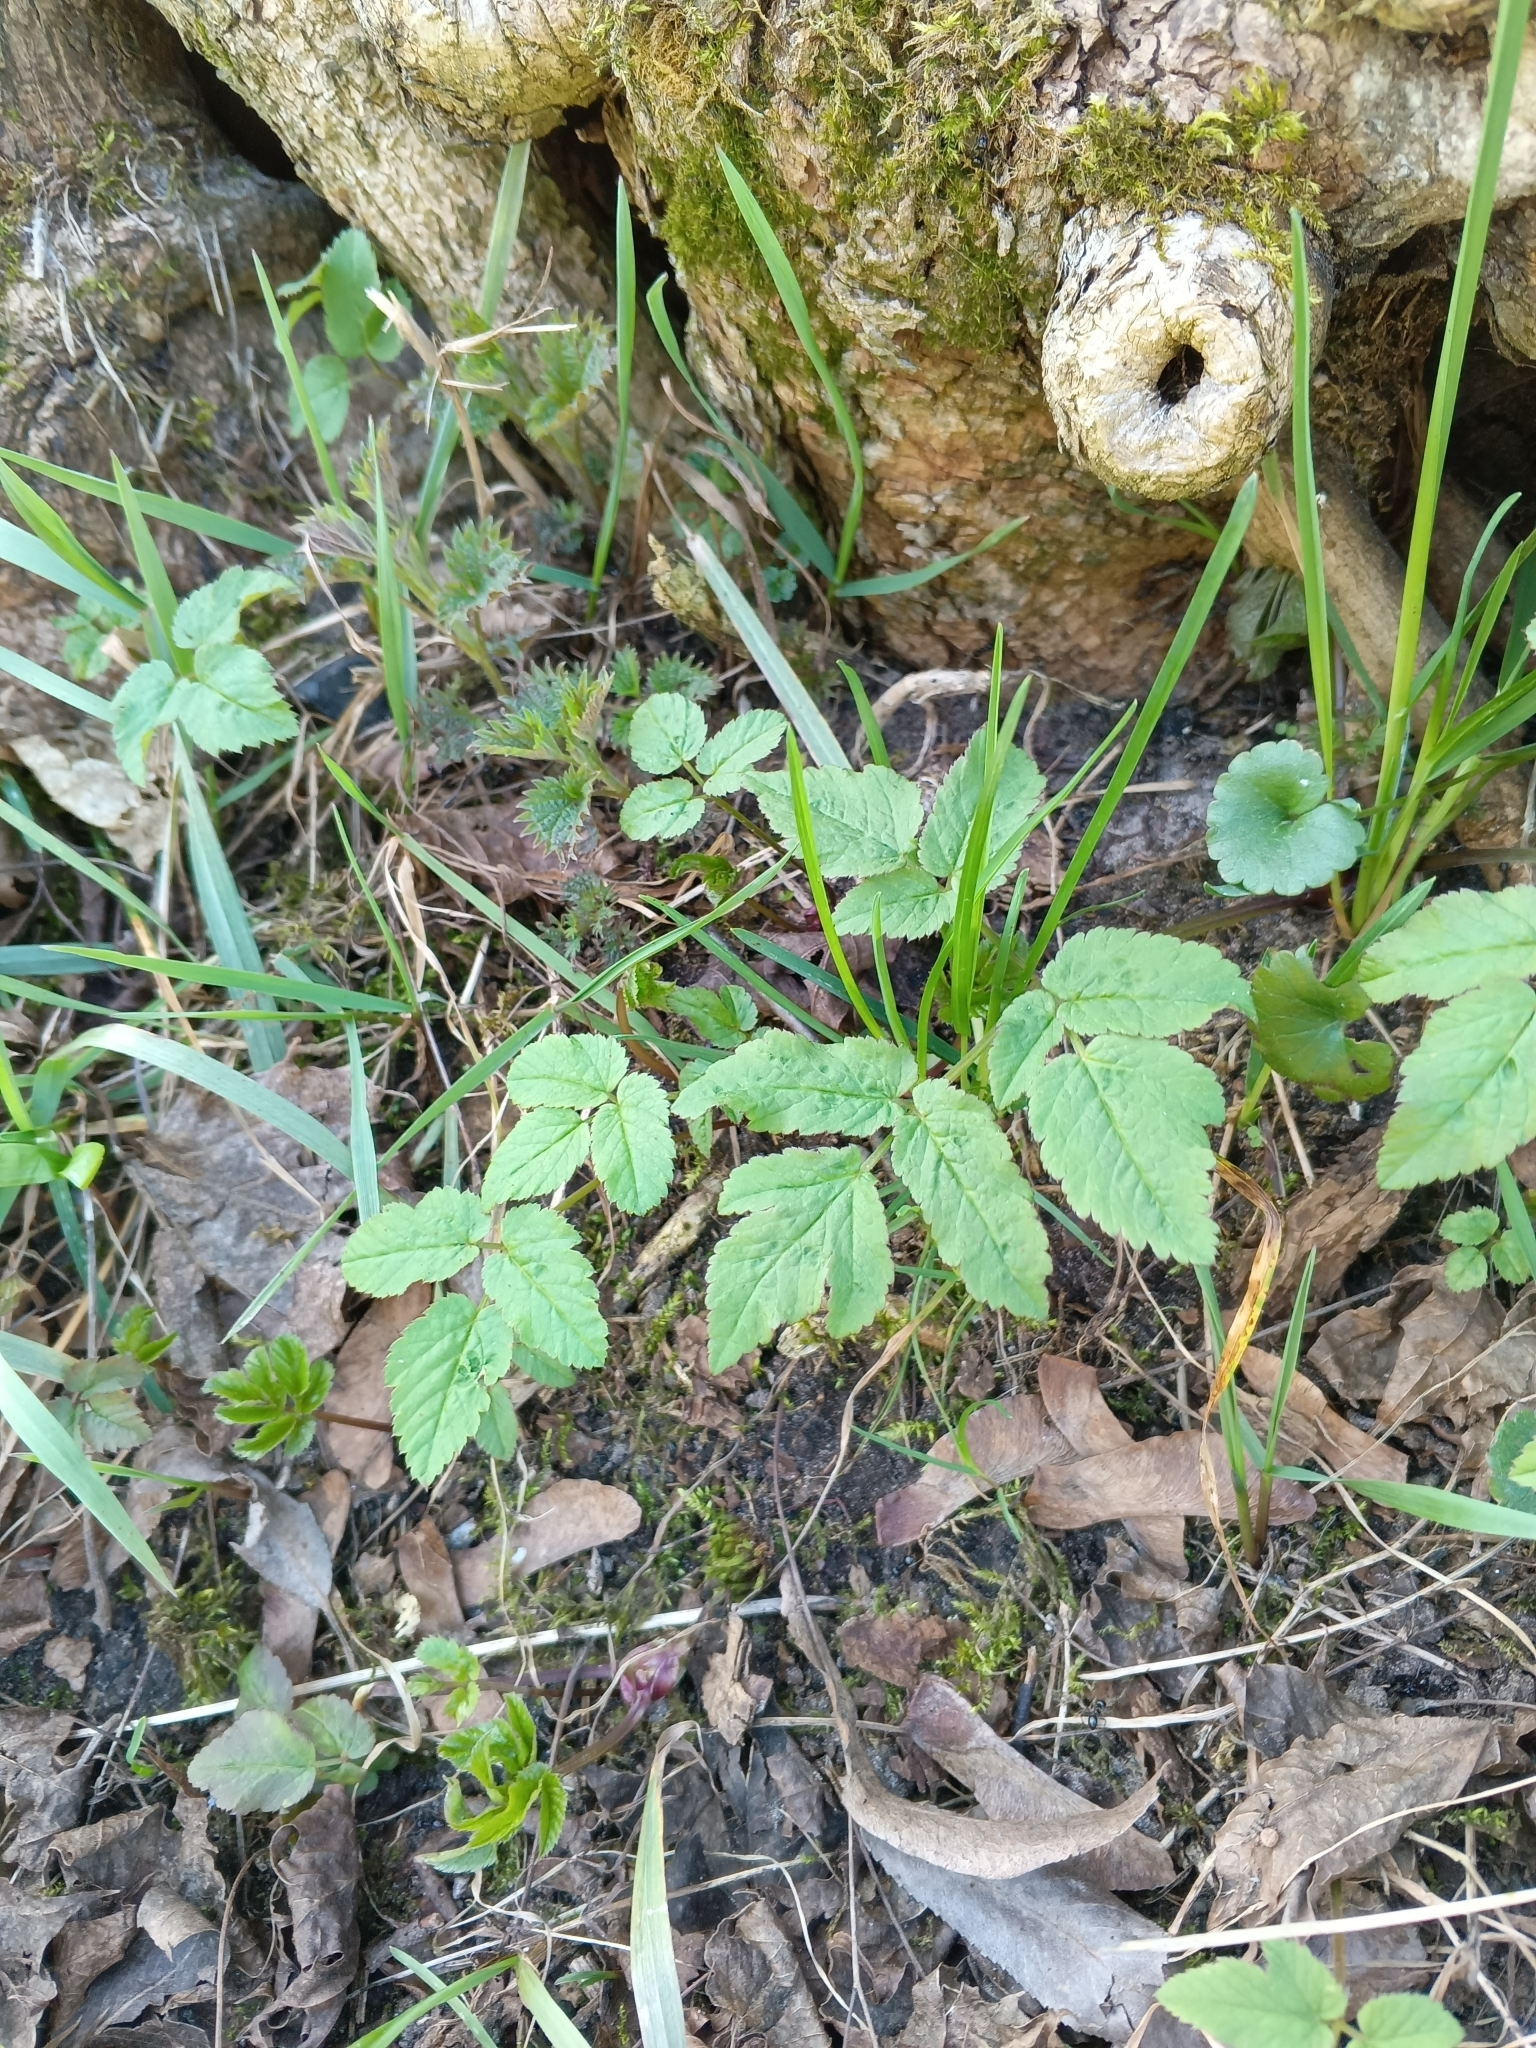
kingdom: Plantae
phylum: Tracheophyta
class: Magnoliopsida
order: Apiales
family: Apiaceae
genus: Aegopodium
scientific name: Aegopodium podagraria
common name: Ground-elder
